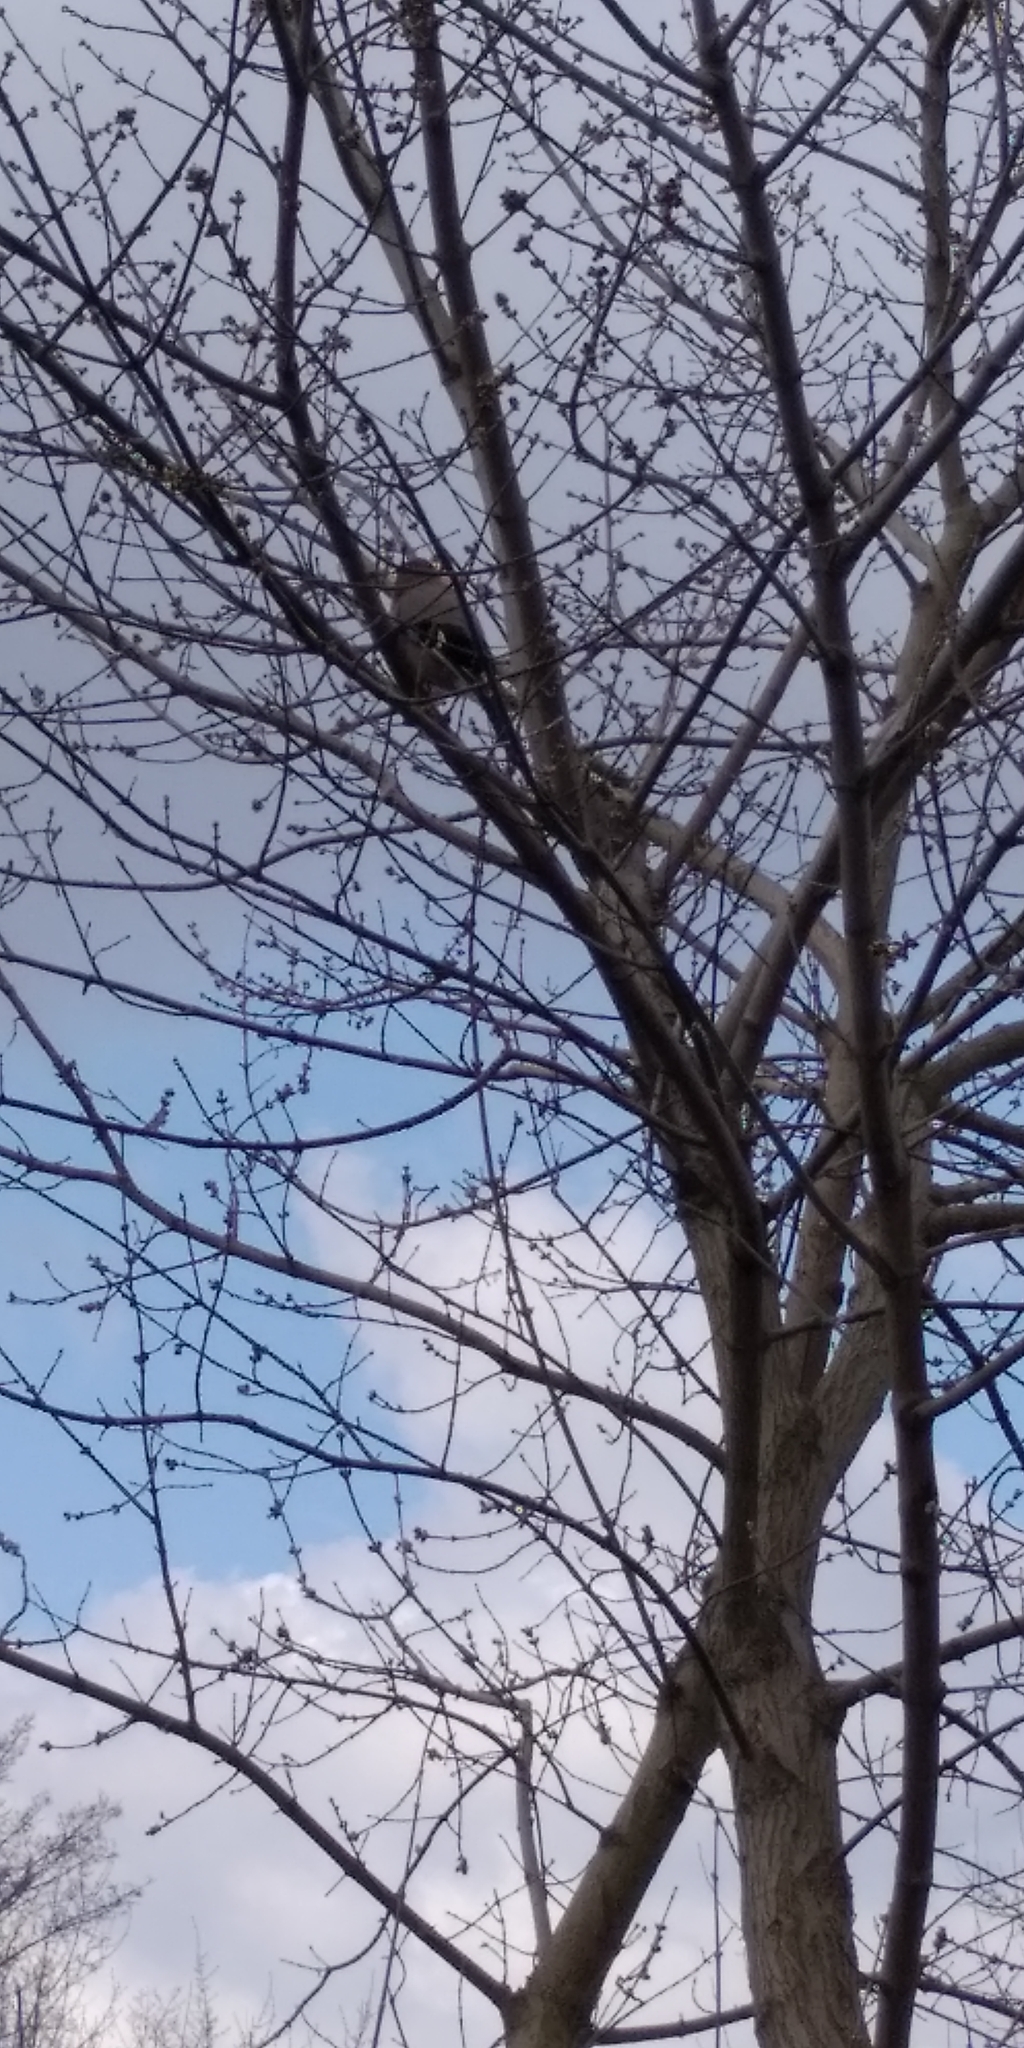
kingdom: Animalia
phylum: Chordata
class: Aves
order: Passeriformes
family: Corvidae
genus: Garrulus
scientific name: Garrulus glandarius
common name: Eurasian jay
